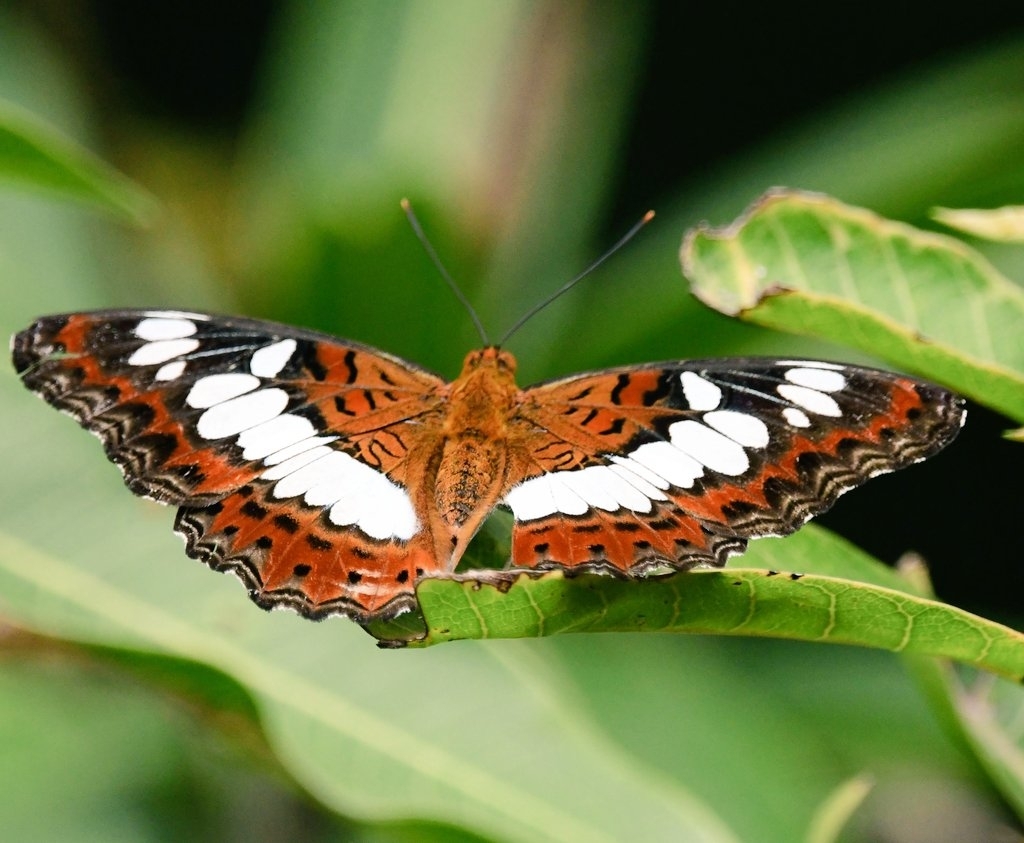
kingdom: Animalia
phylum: Arthropoda
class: Insecta
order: Lepidoptera
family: Nymphalidae
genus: Limenitis
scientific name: Limenitis Moduza procris
